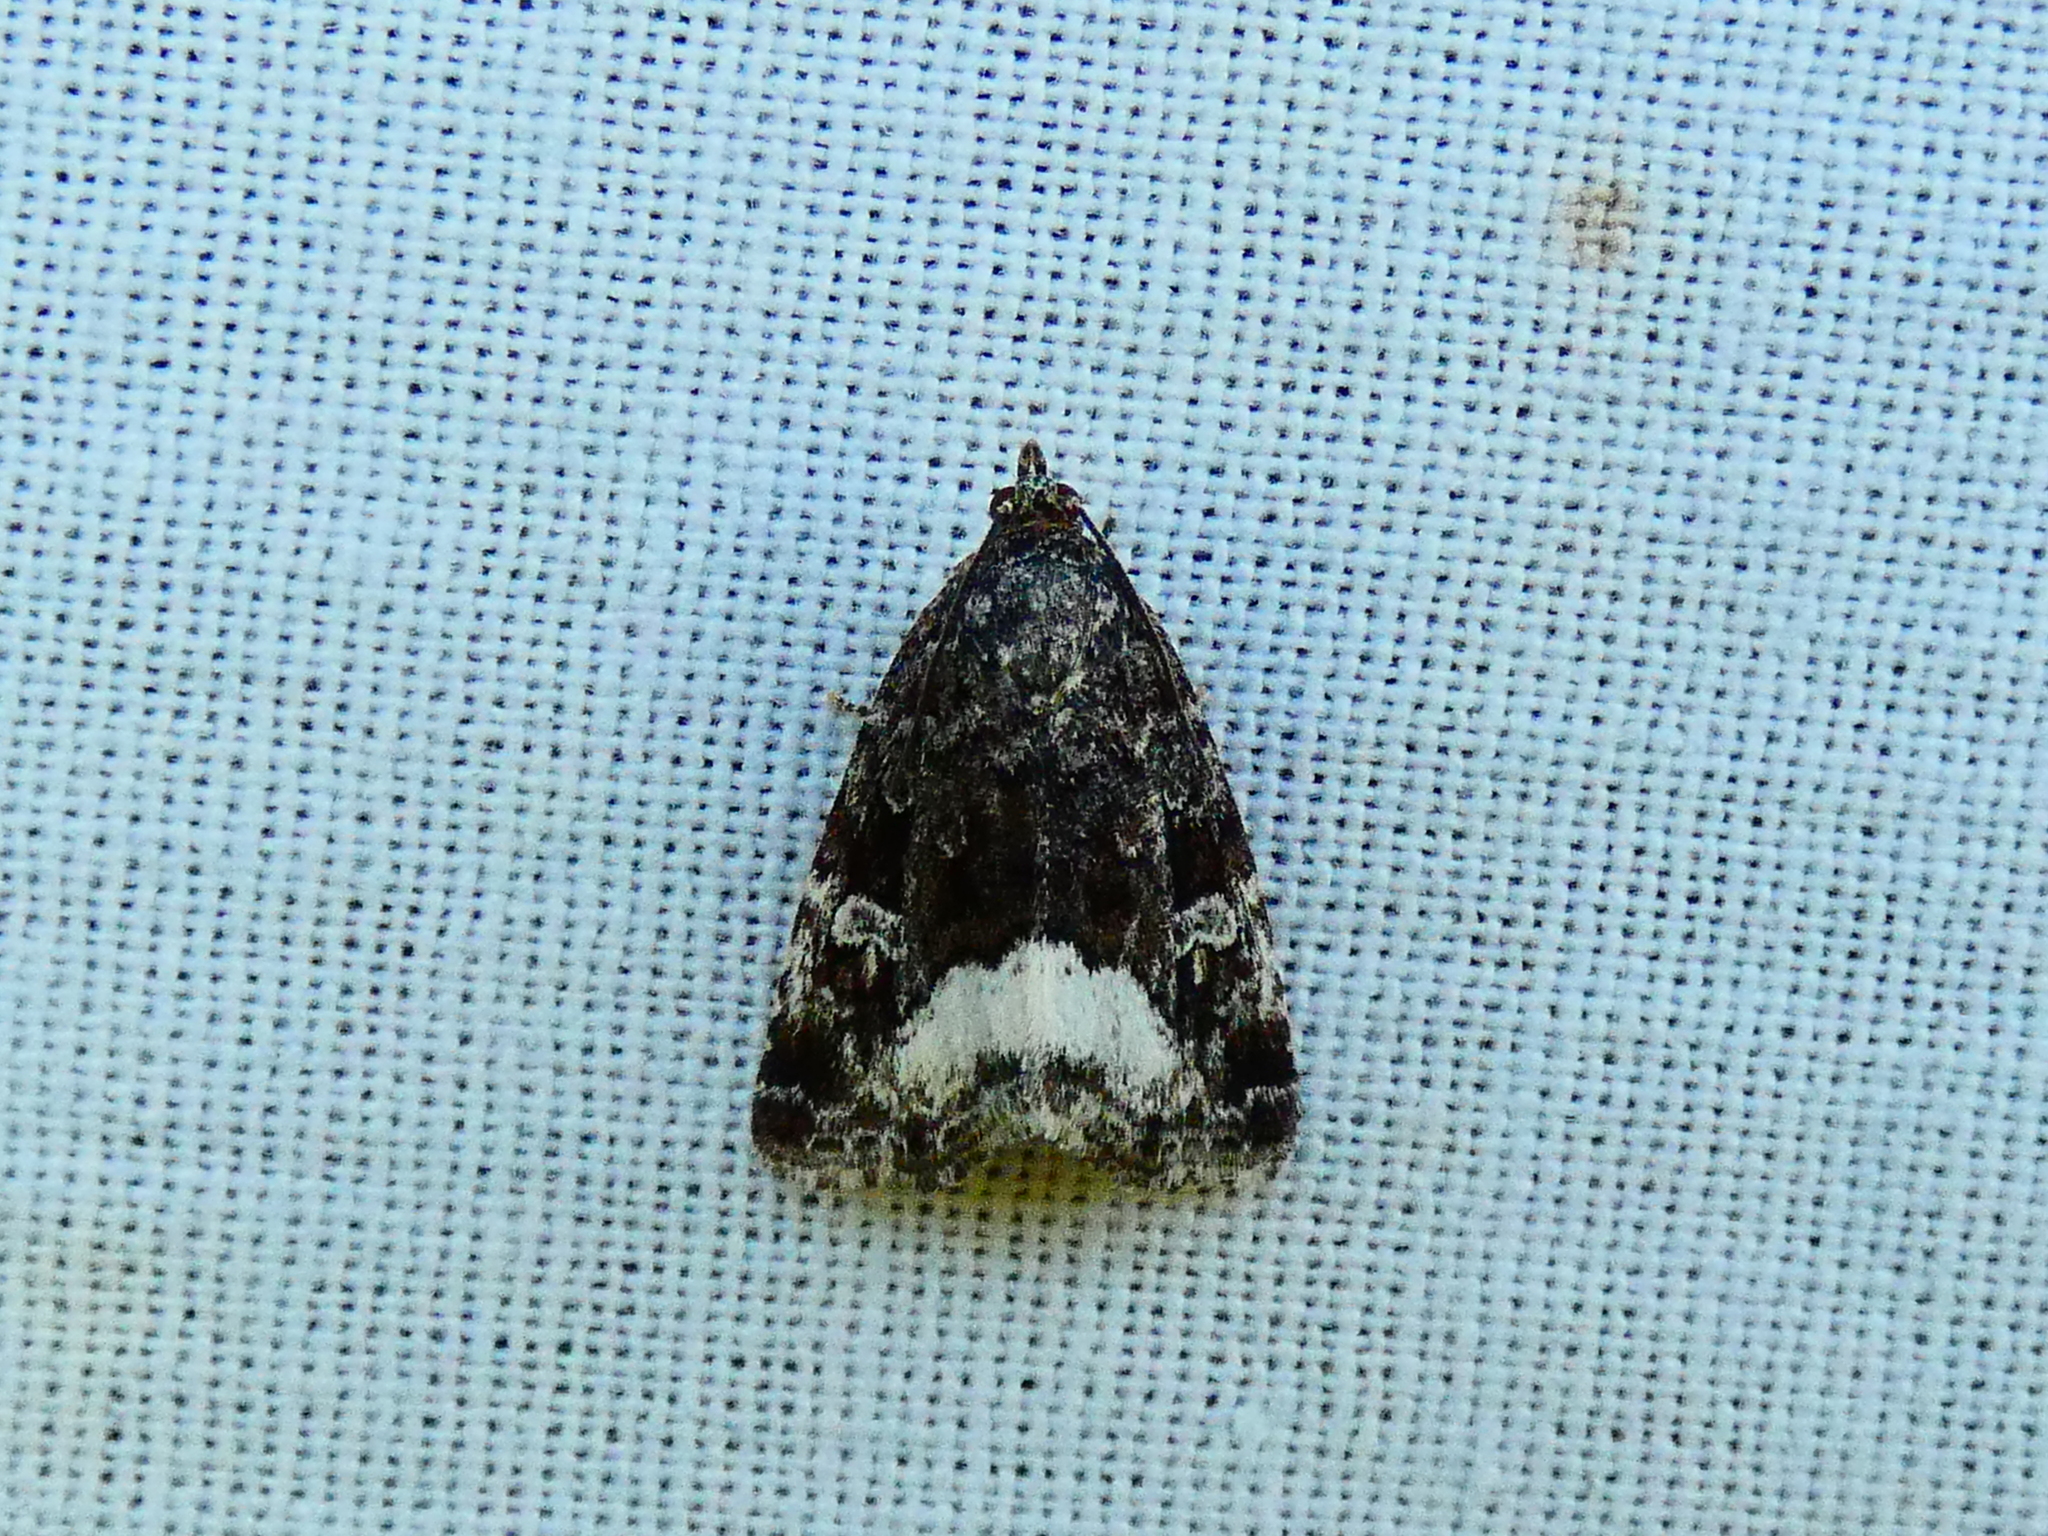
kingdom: Animalia
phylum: Arthropoda
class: Insecta
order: Lepidoptera
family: Noctuidae
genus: Deltote
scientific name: Deltote pygarga
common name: Marbled white spot
